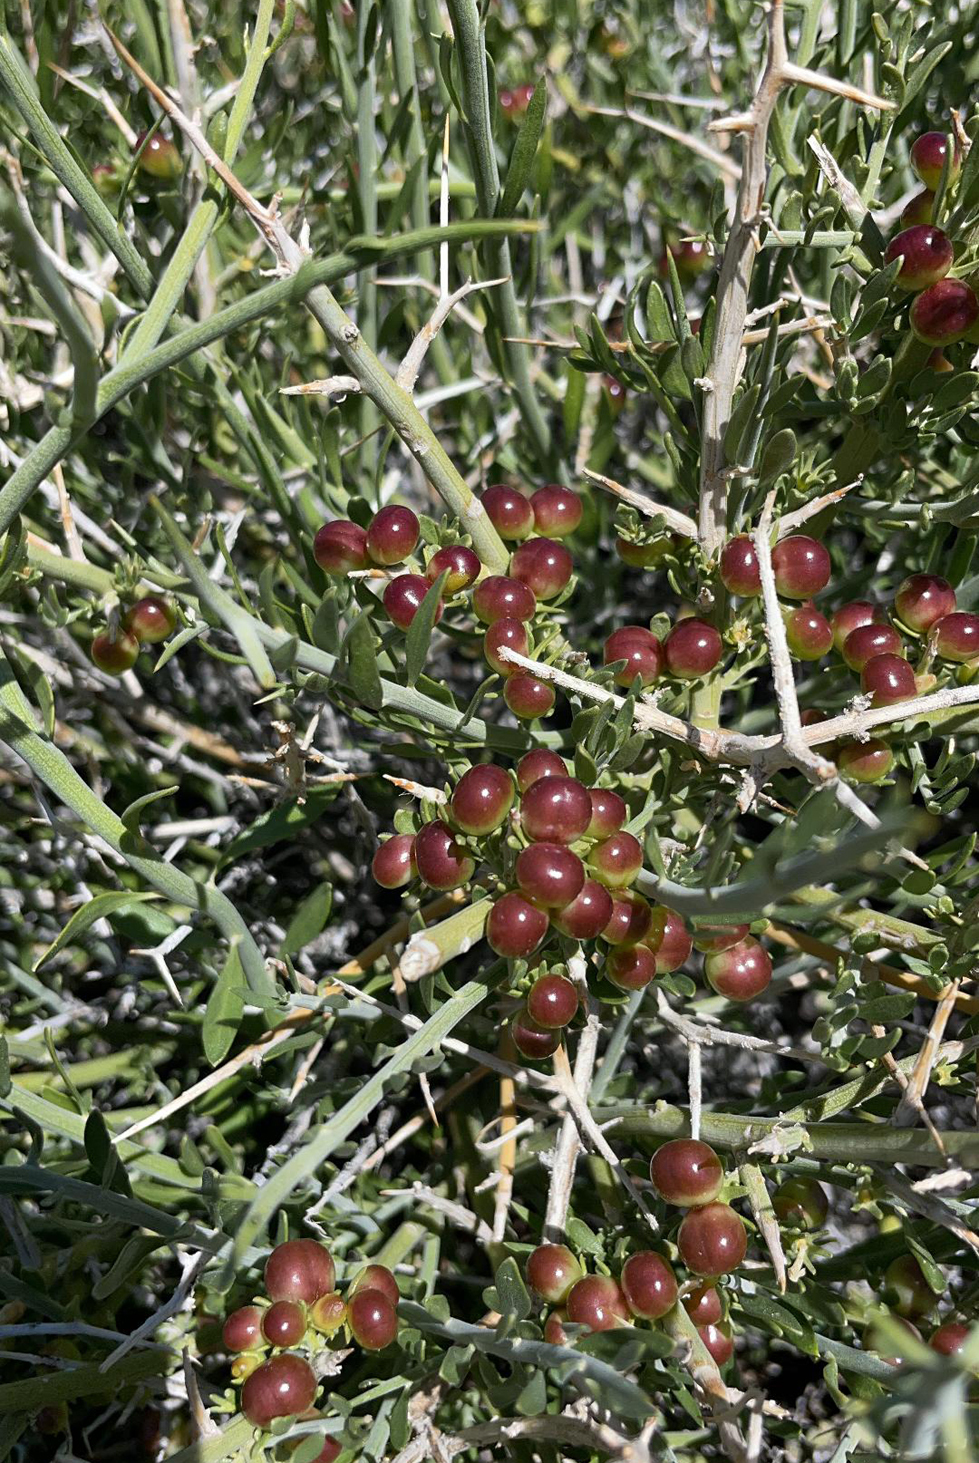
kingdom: Plantae
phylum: Tracheophyta
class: Magnoliopsida
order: Lamiales
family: Oleaceae
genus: Menodora
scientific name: Menodora spinescens
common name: Spiny menodora
